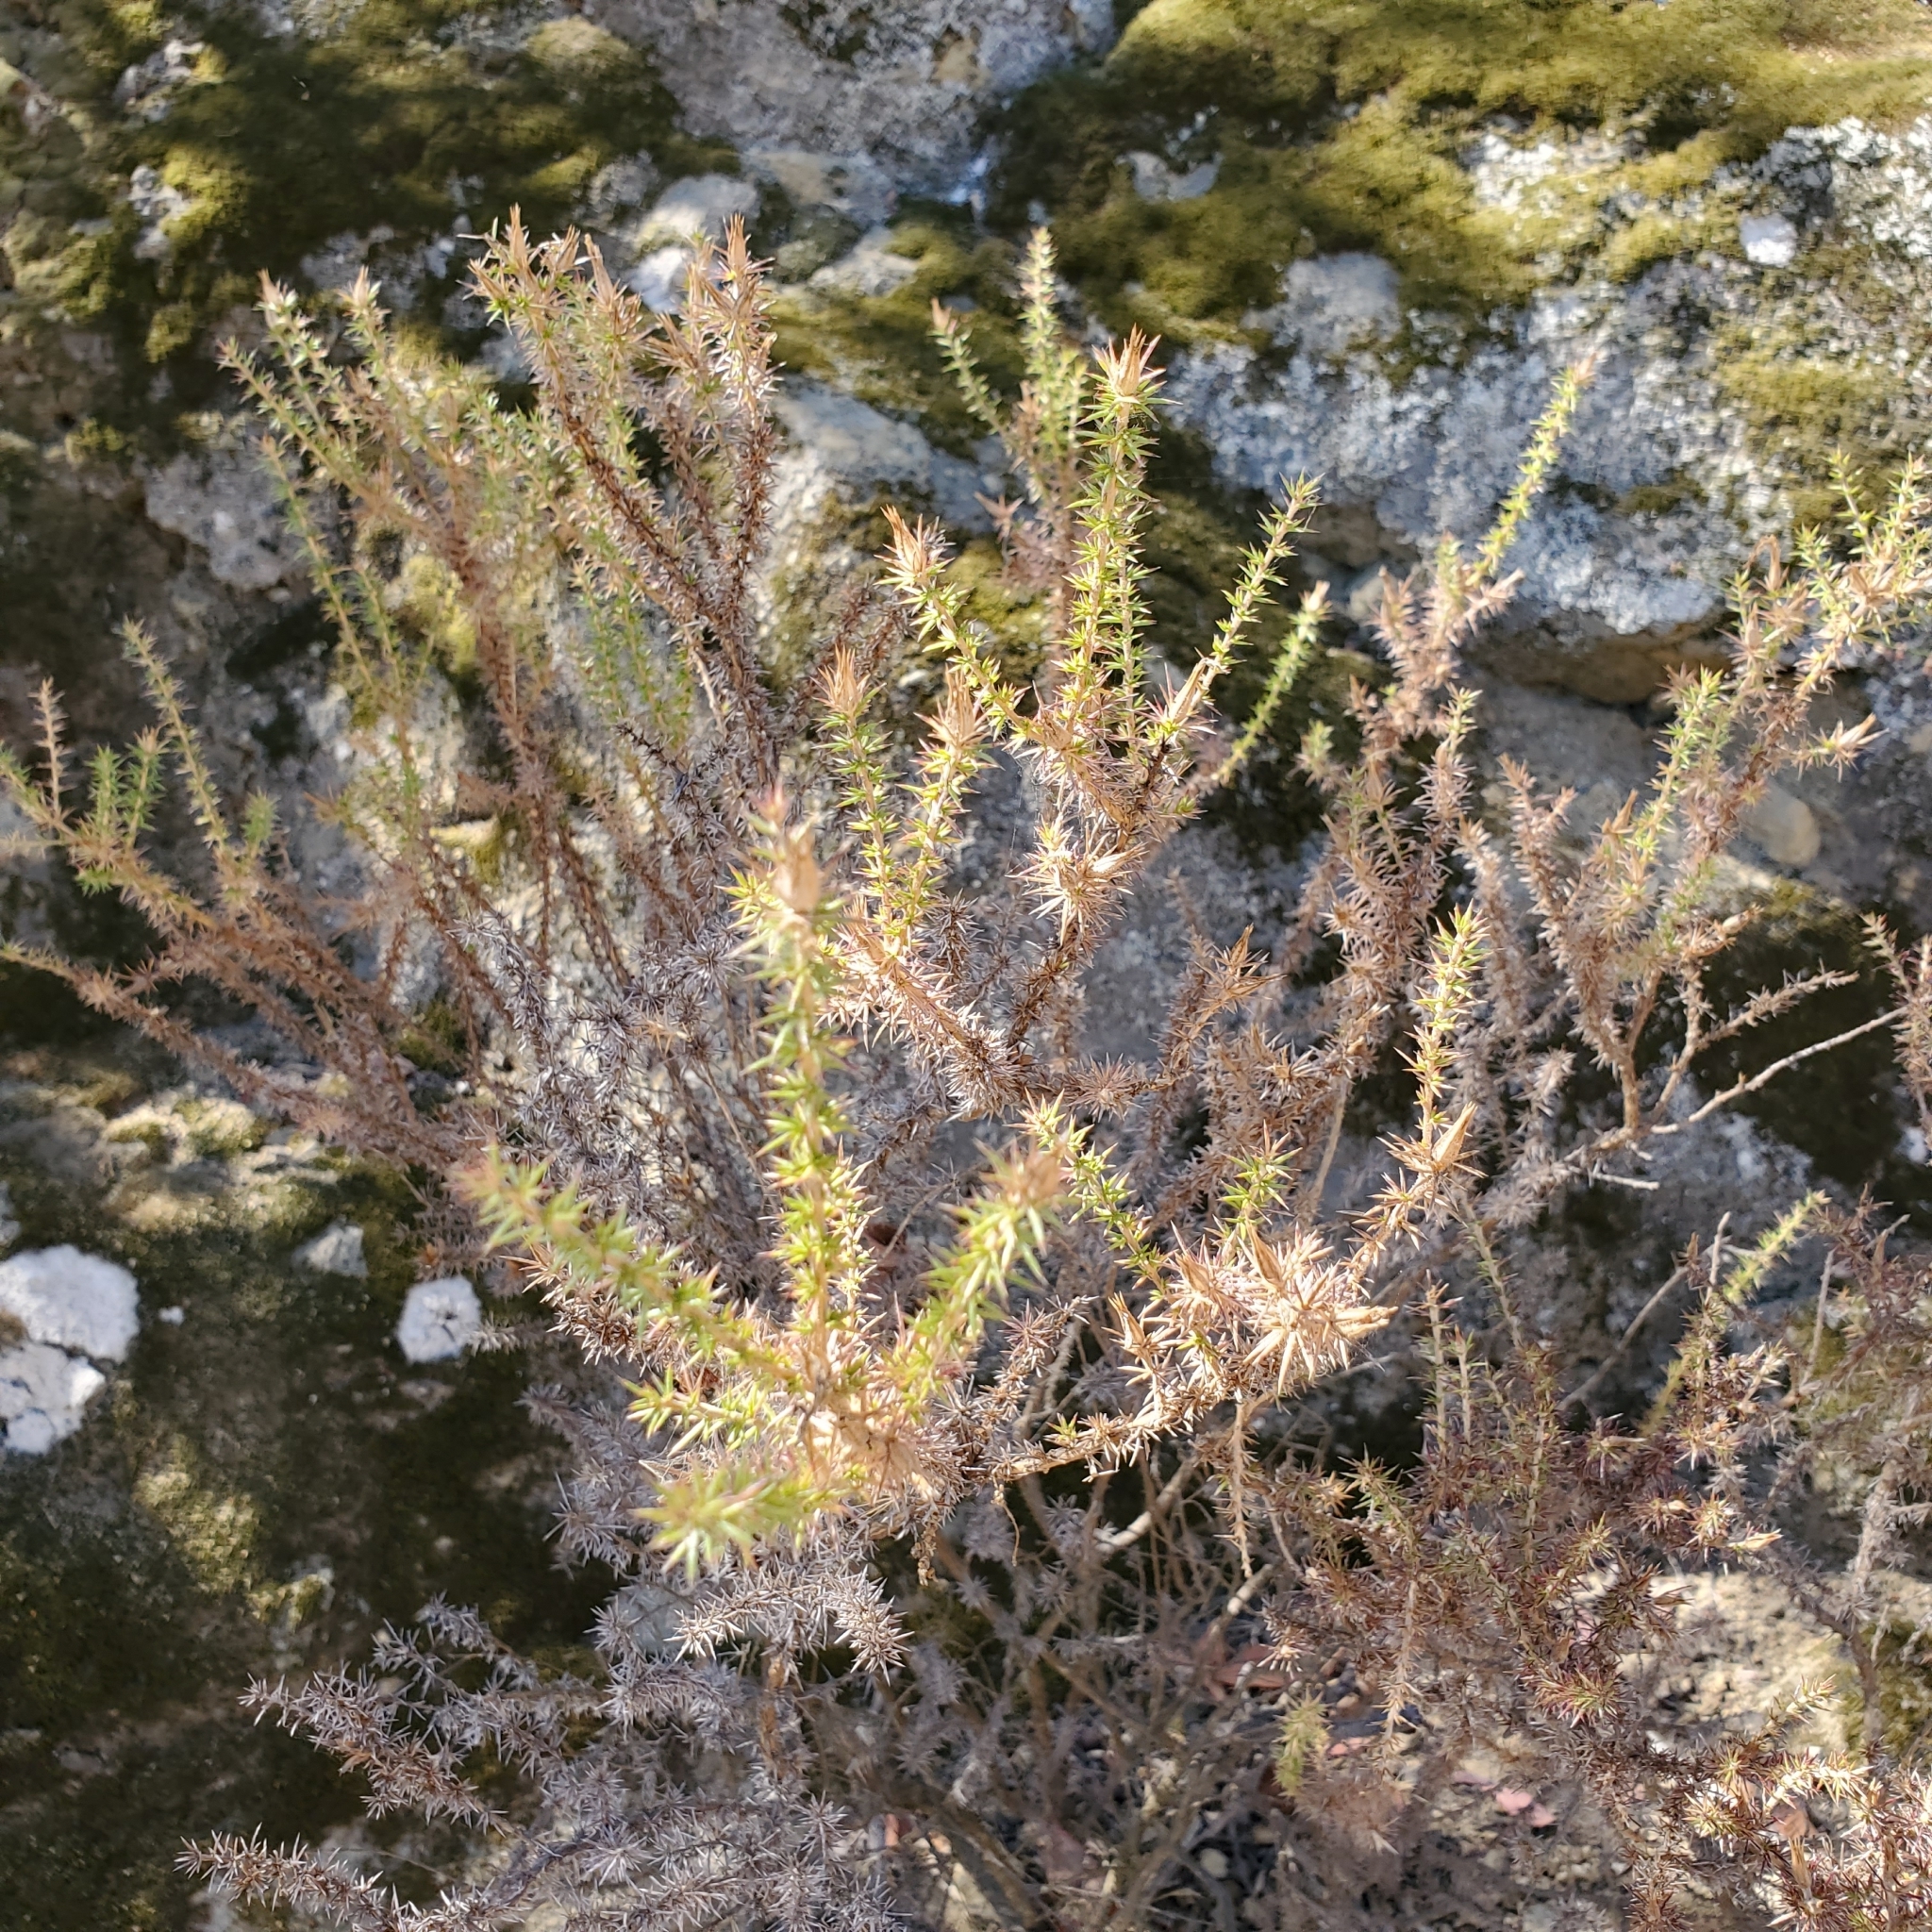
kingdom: Plantae
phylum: Tracheophyta
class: Magnoliopsida
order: Ericales
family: Polemoniaceae
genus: Linanthus
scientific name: Linanthus californicus
